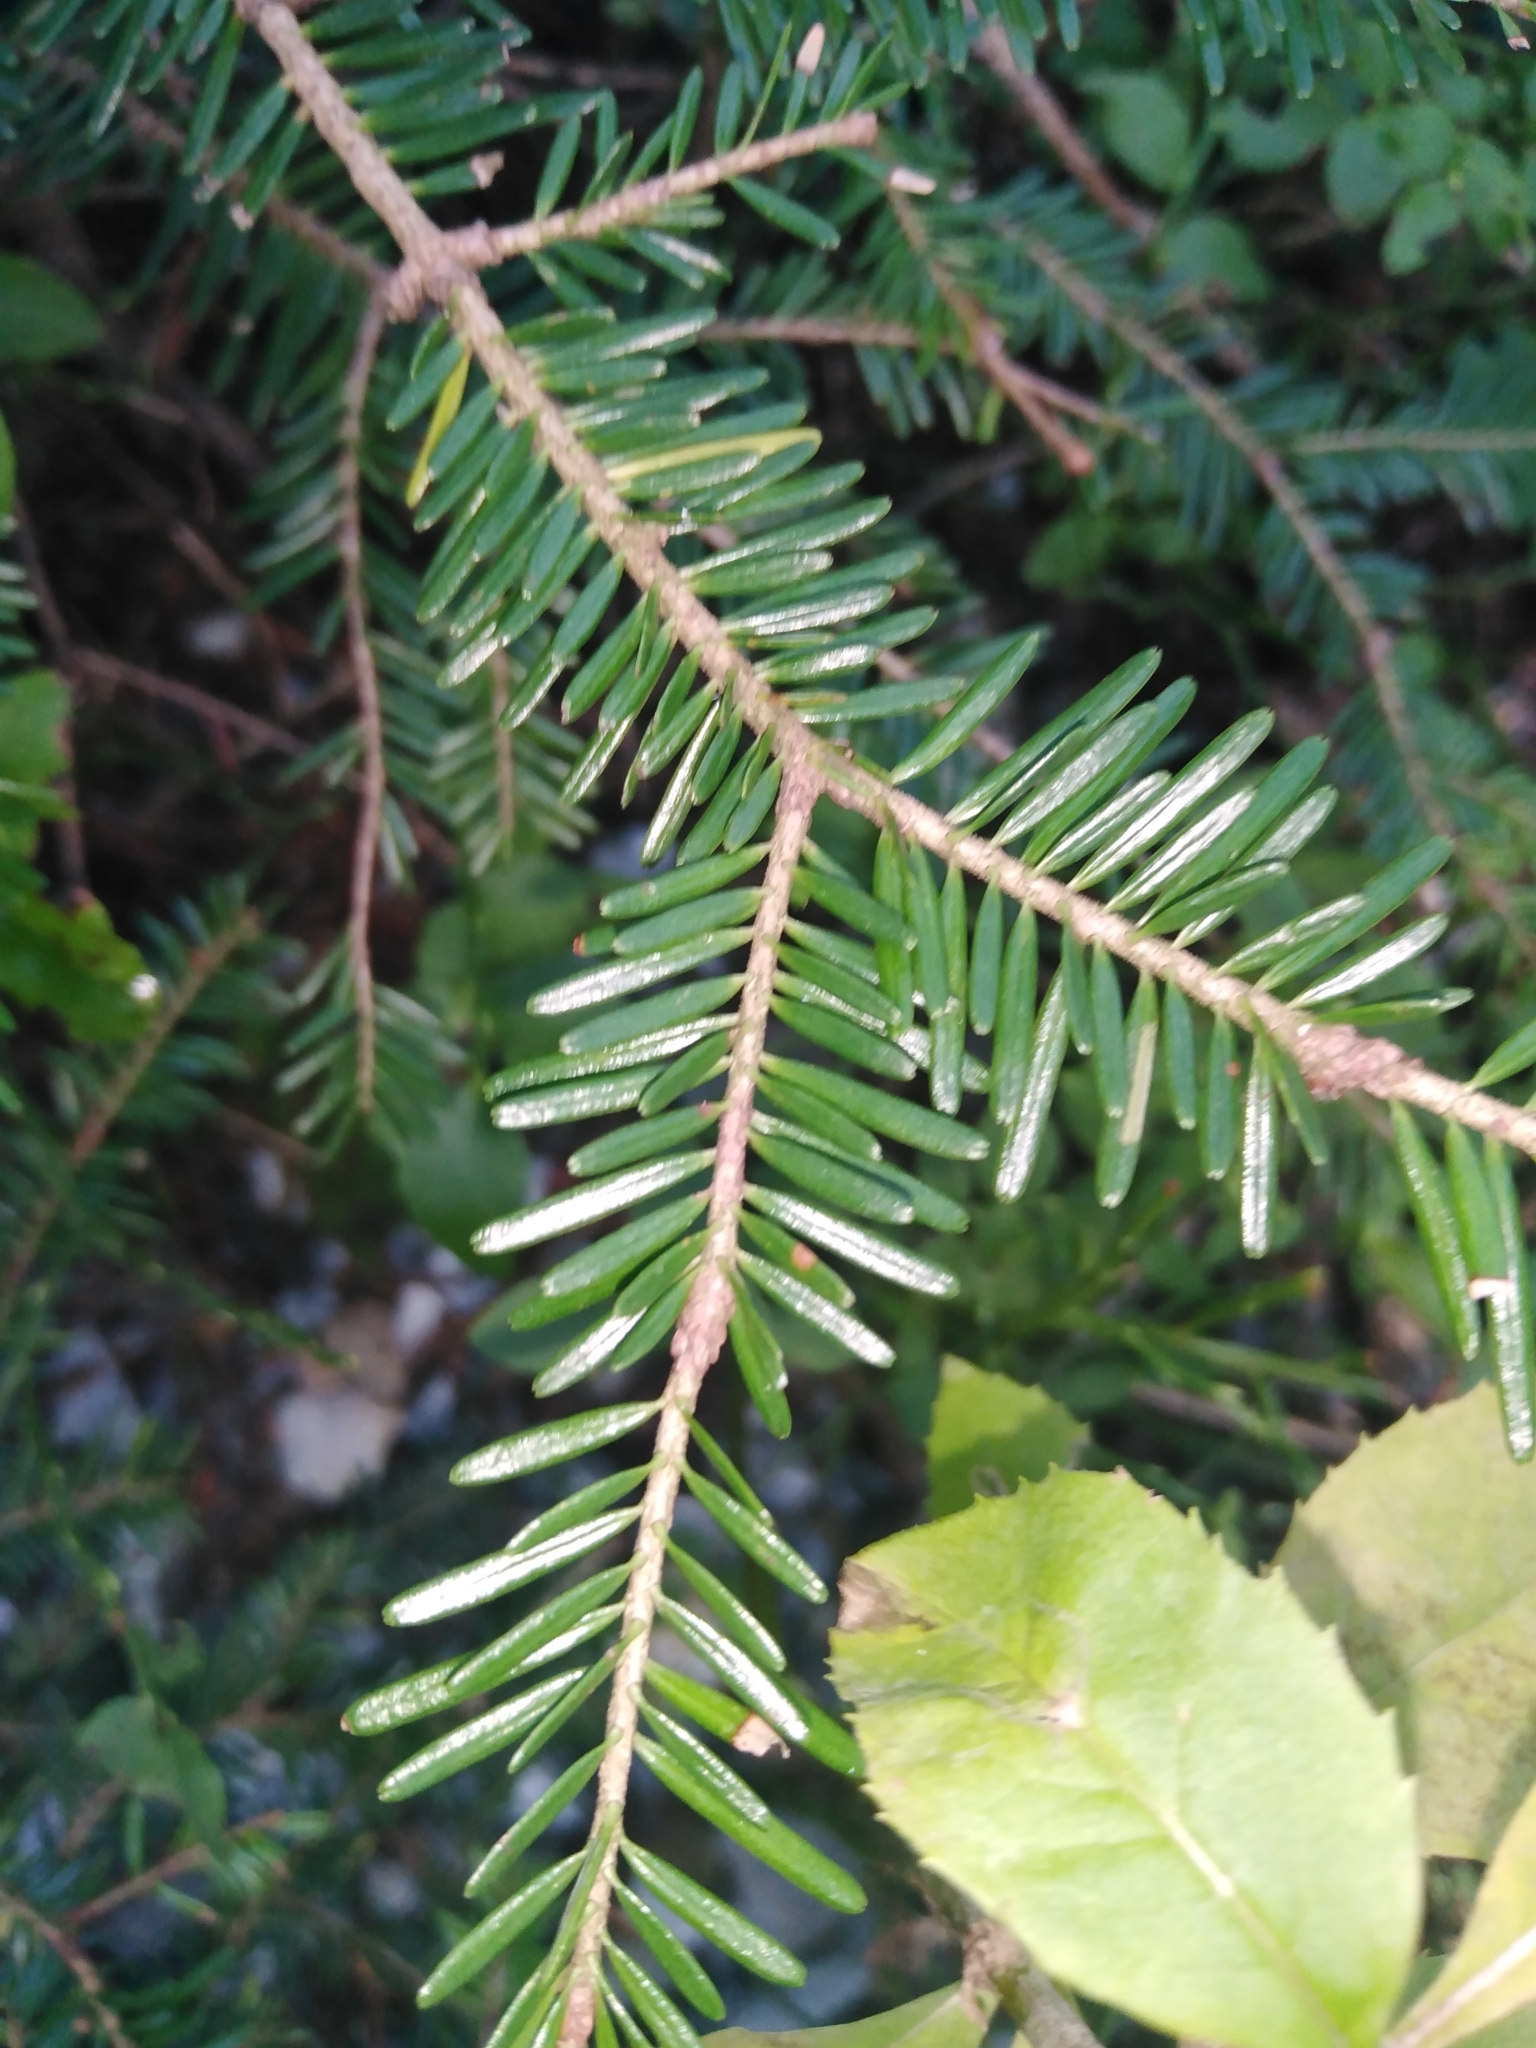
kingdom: Plantae
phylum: Tracheophyta
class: Pinopsida
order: Pinales
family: Pinaceae
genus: Abies
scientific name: Abies alba
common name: Silver fir
